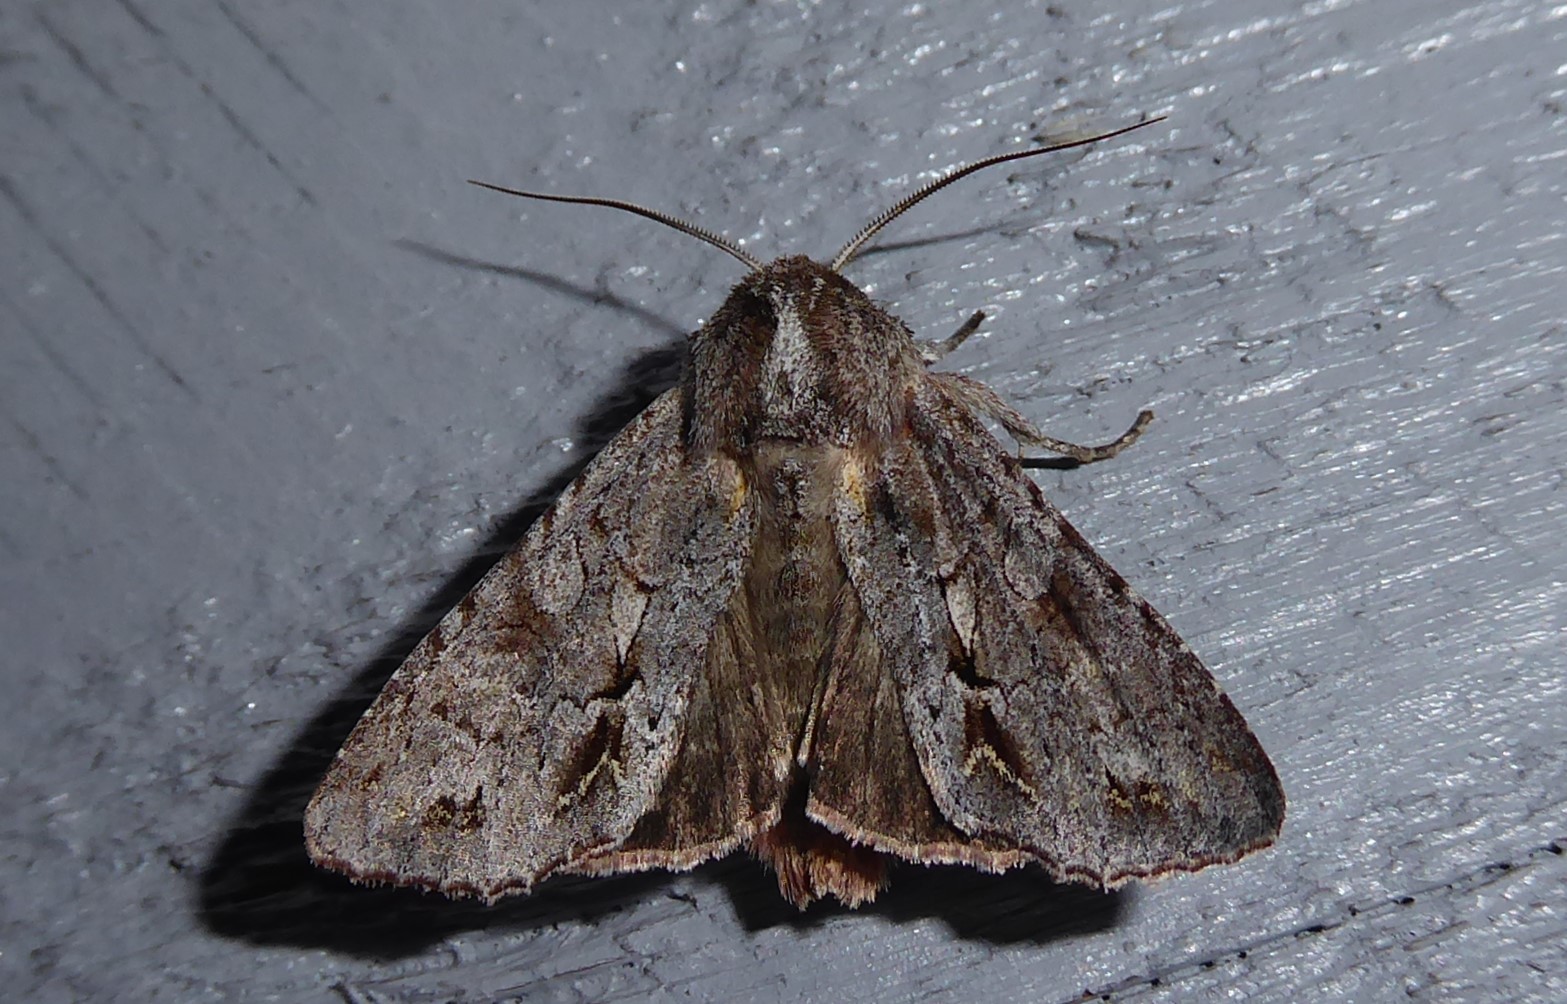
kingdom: Animalia
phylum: Arthropoda
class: Insecta
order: Lepidoptera
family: Noctuidae
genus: Ichneutica
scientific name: Ichneutica
